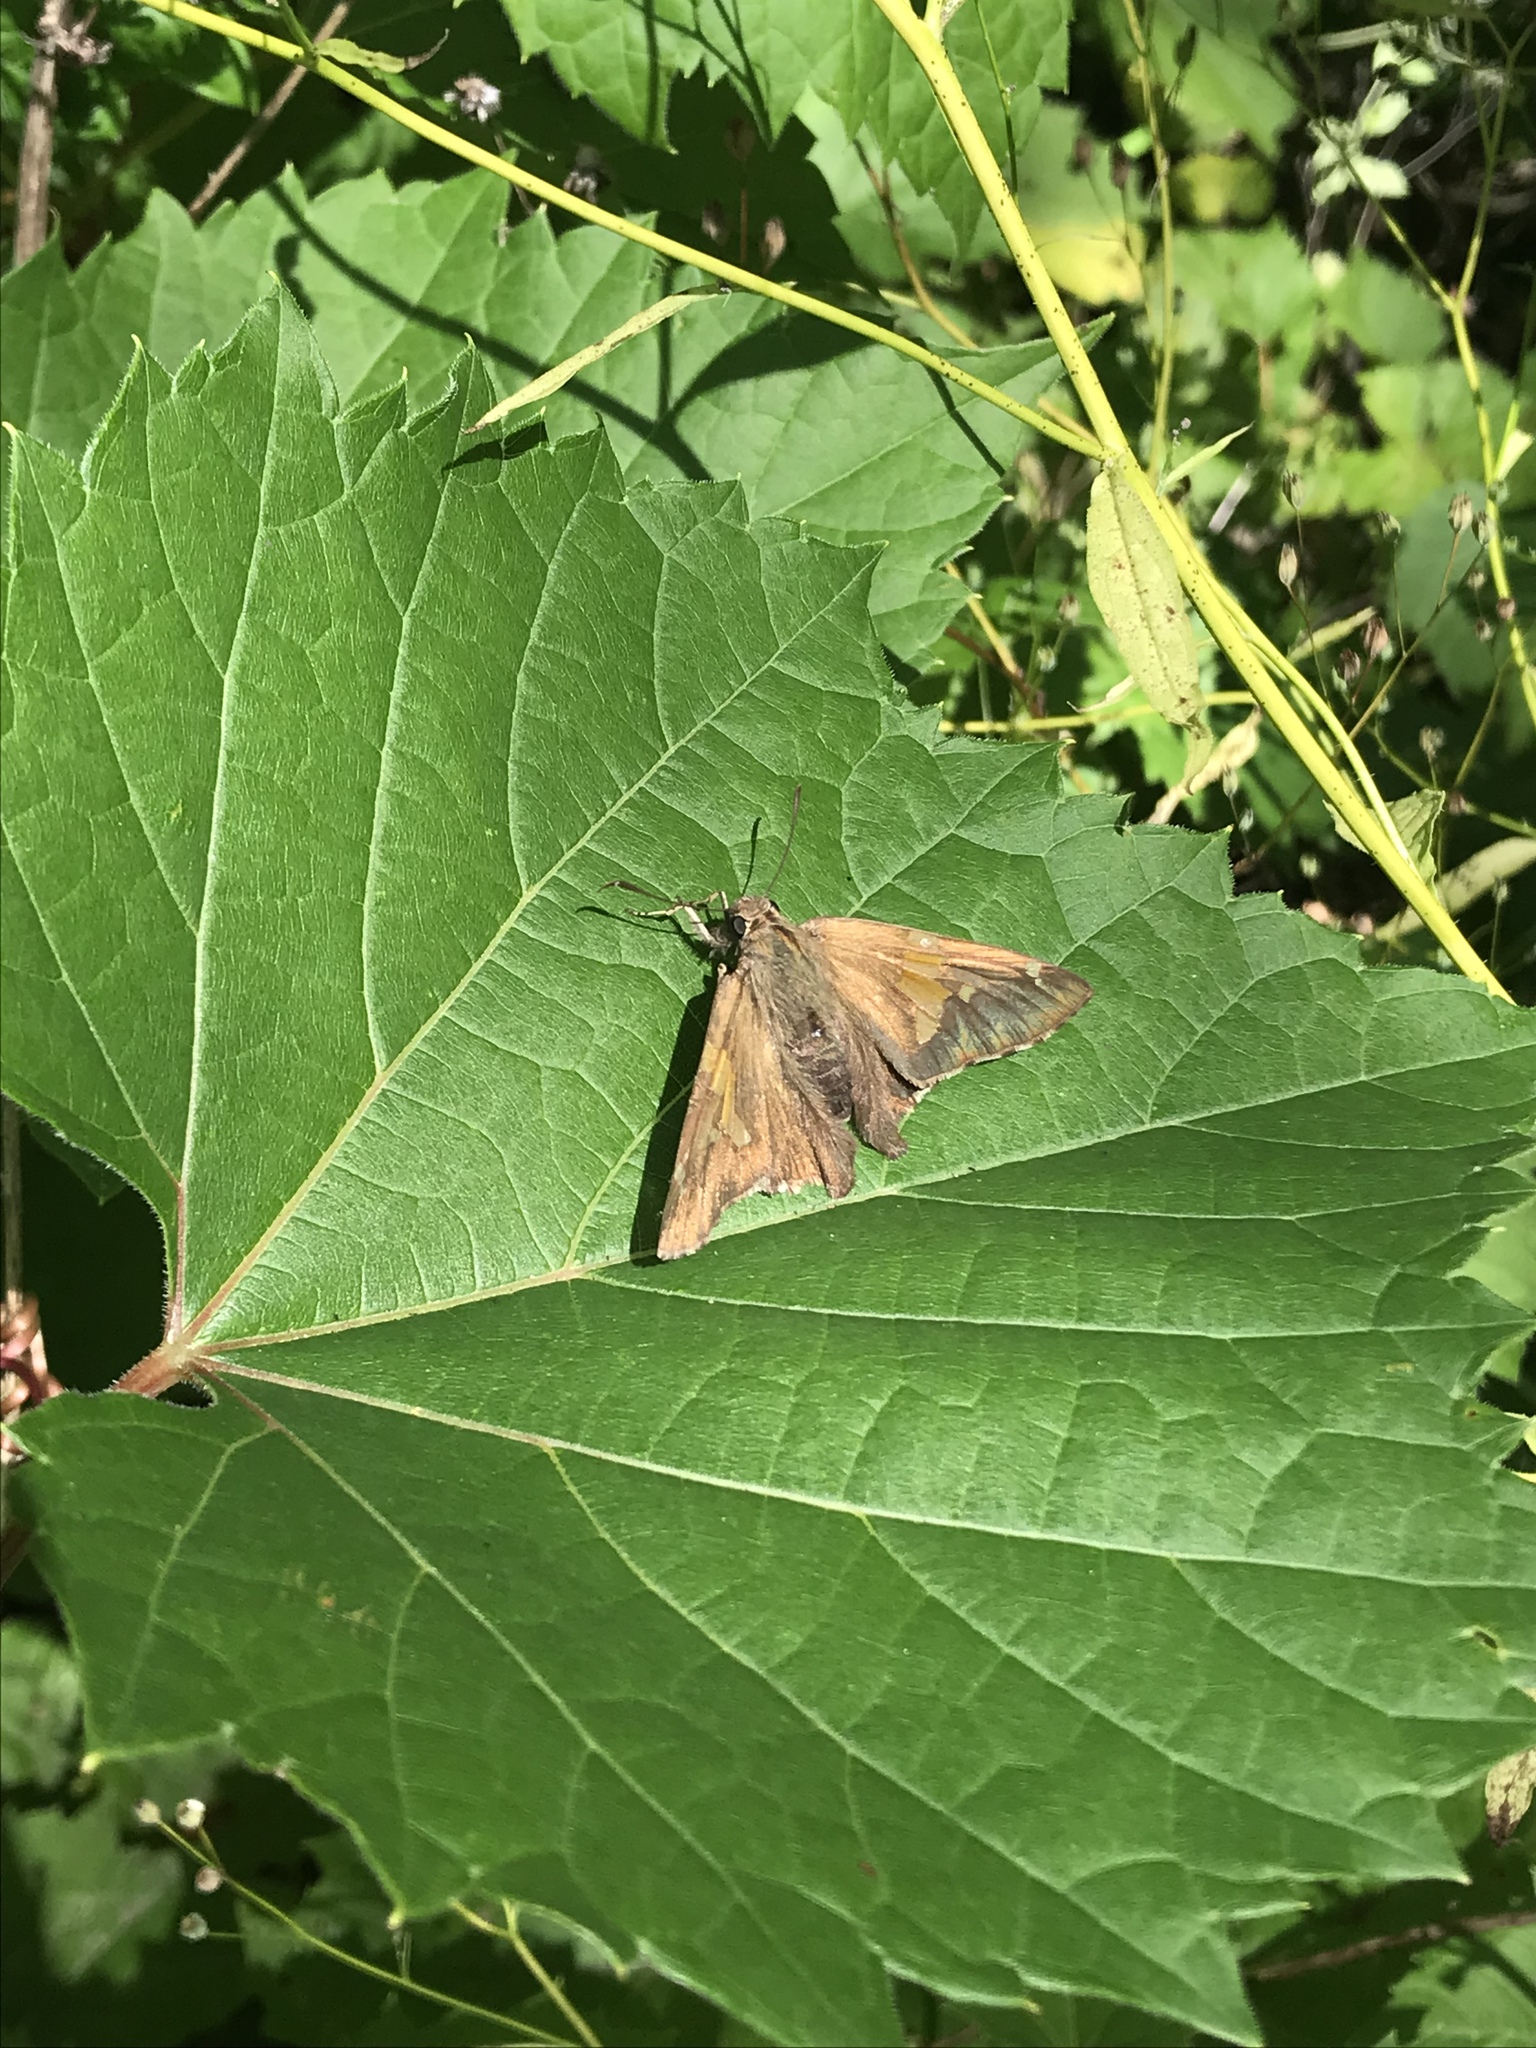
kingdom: Animalia
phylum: Arthropoda
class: Insecta
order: Lepidoptera
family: Hesperiidae
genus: Epargyreus
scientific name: Epargyreus clarus
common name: Silver-spotted skipper
